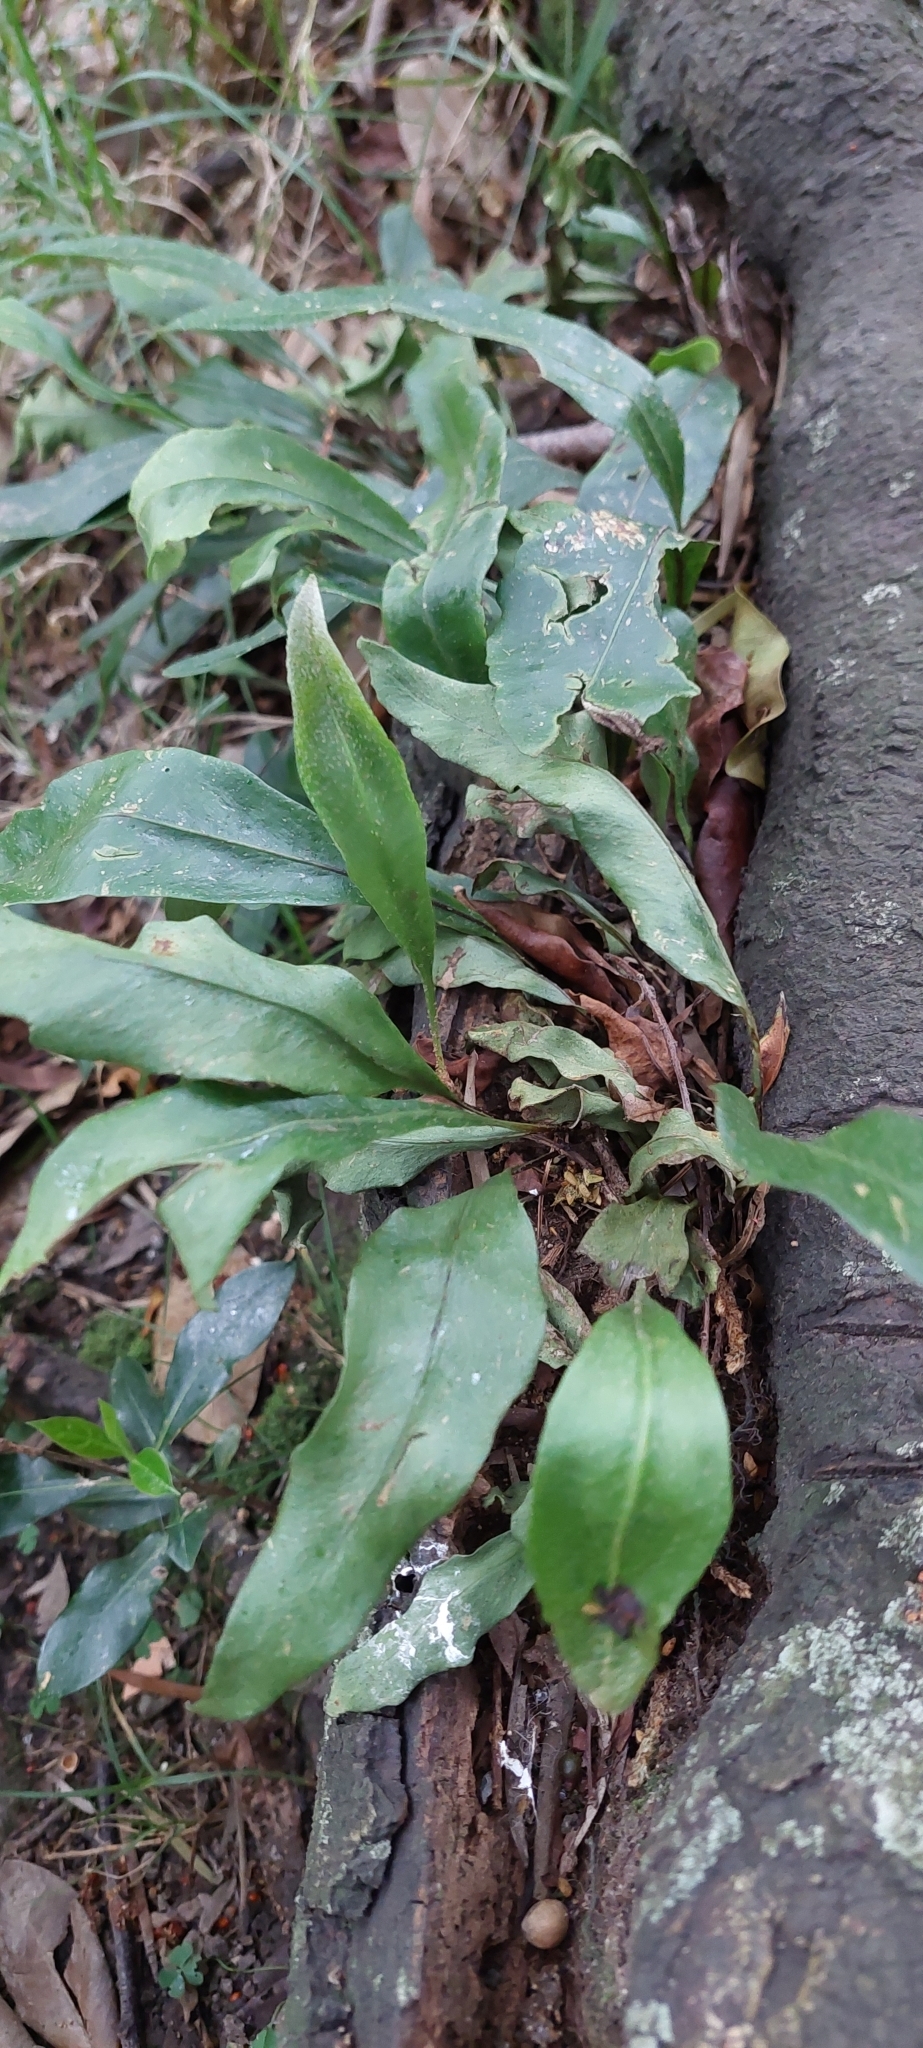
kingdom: Plantae
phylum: Tracheophyta
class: Polypodiopsida
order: Polypodiales
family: Polypodiaceae
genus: Pleopeltis
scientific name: Pleopeltis macrocarpa
